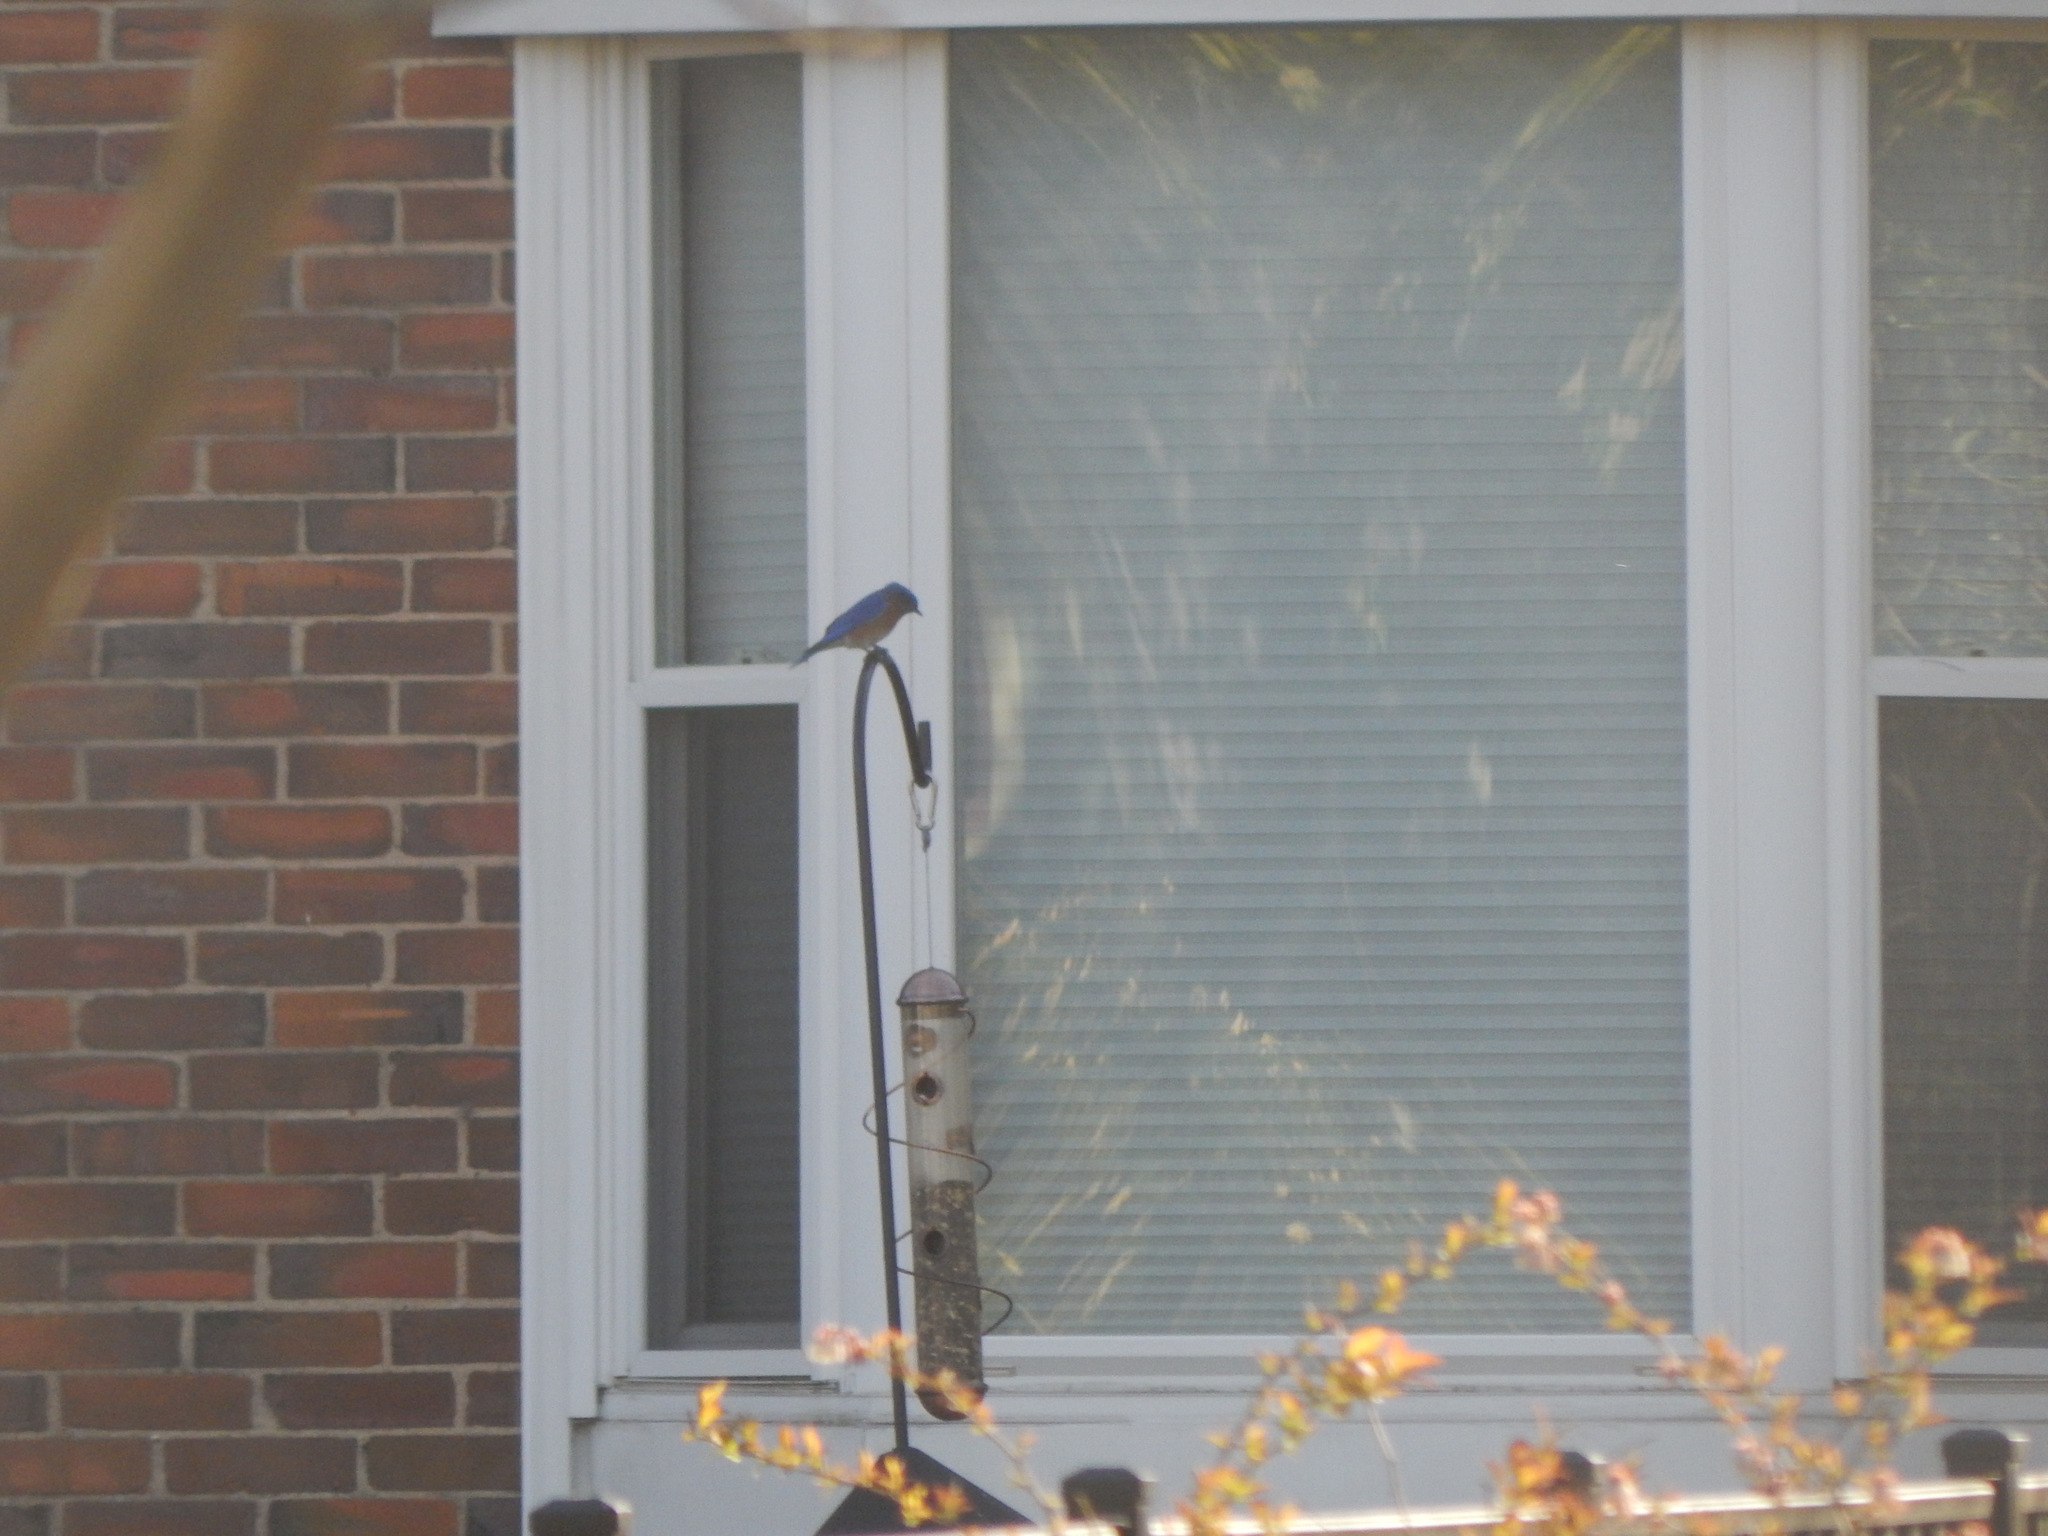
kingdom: Animalia
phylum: Chordata
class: Aves
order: Passeriformes
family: Turdidae
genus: Sialia
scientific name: Sialia sialis
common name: Eastern bluebird
